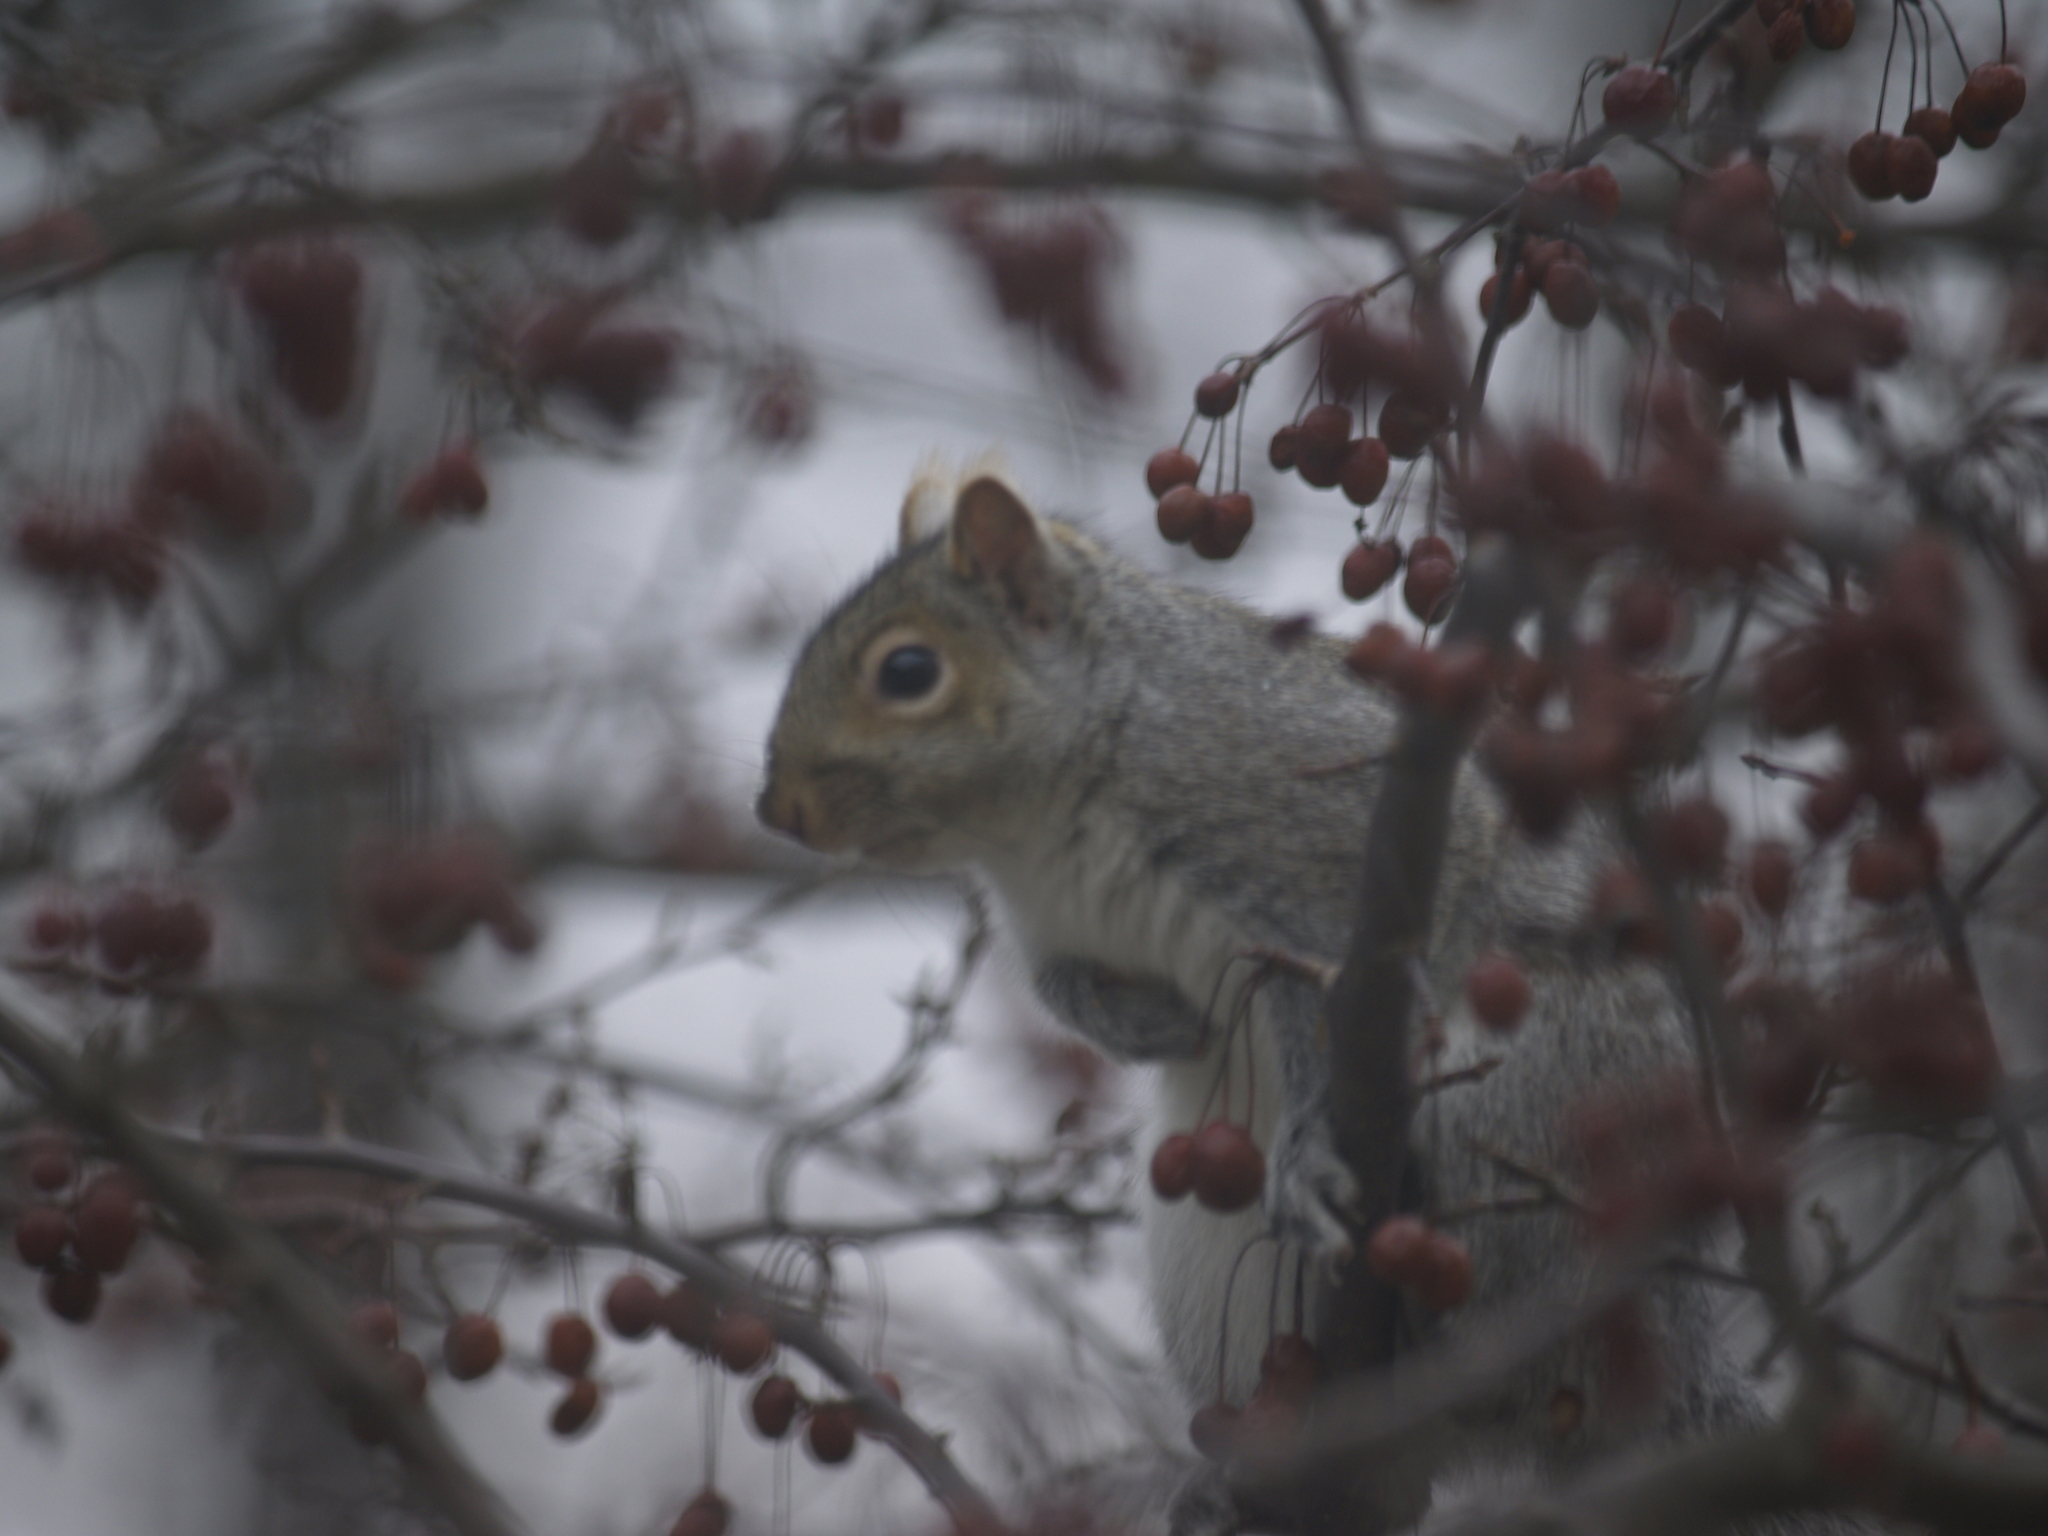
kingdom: Animalia
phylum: Chordata
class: Mammalia
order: Rodentia
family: Sciuridae
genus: Sciurus
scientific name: Sciurus carolinensis
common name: Eastern gray squirrel
